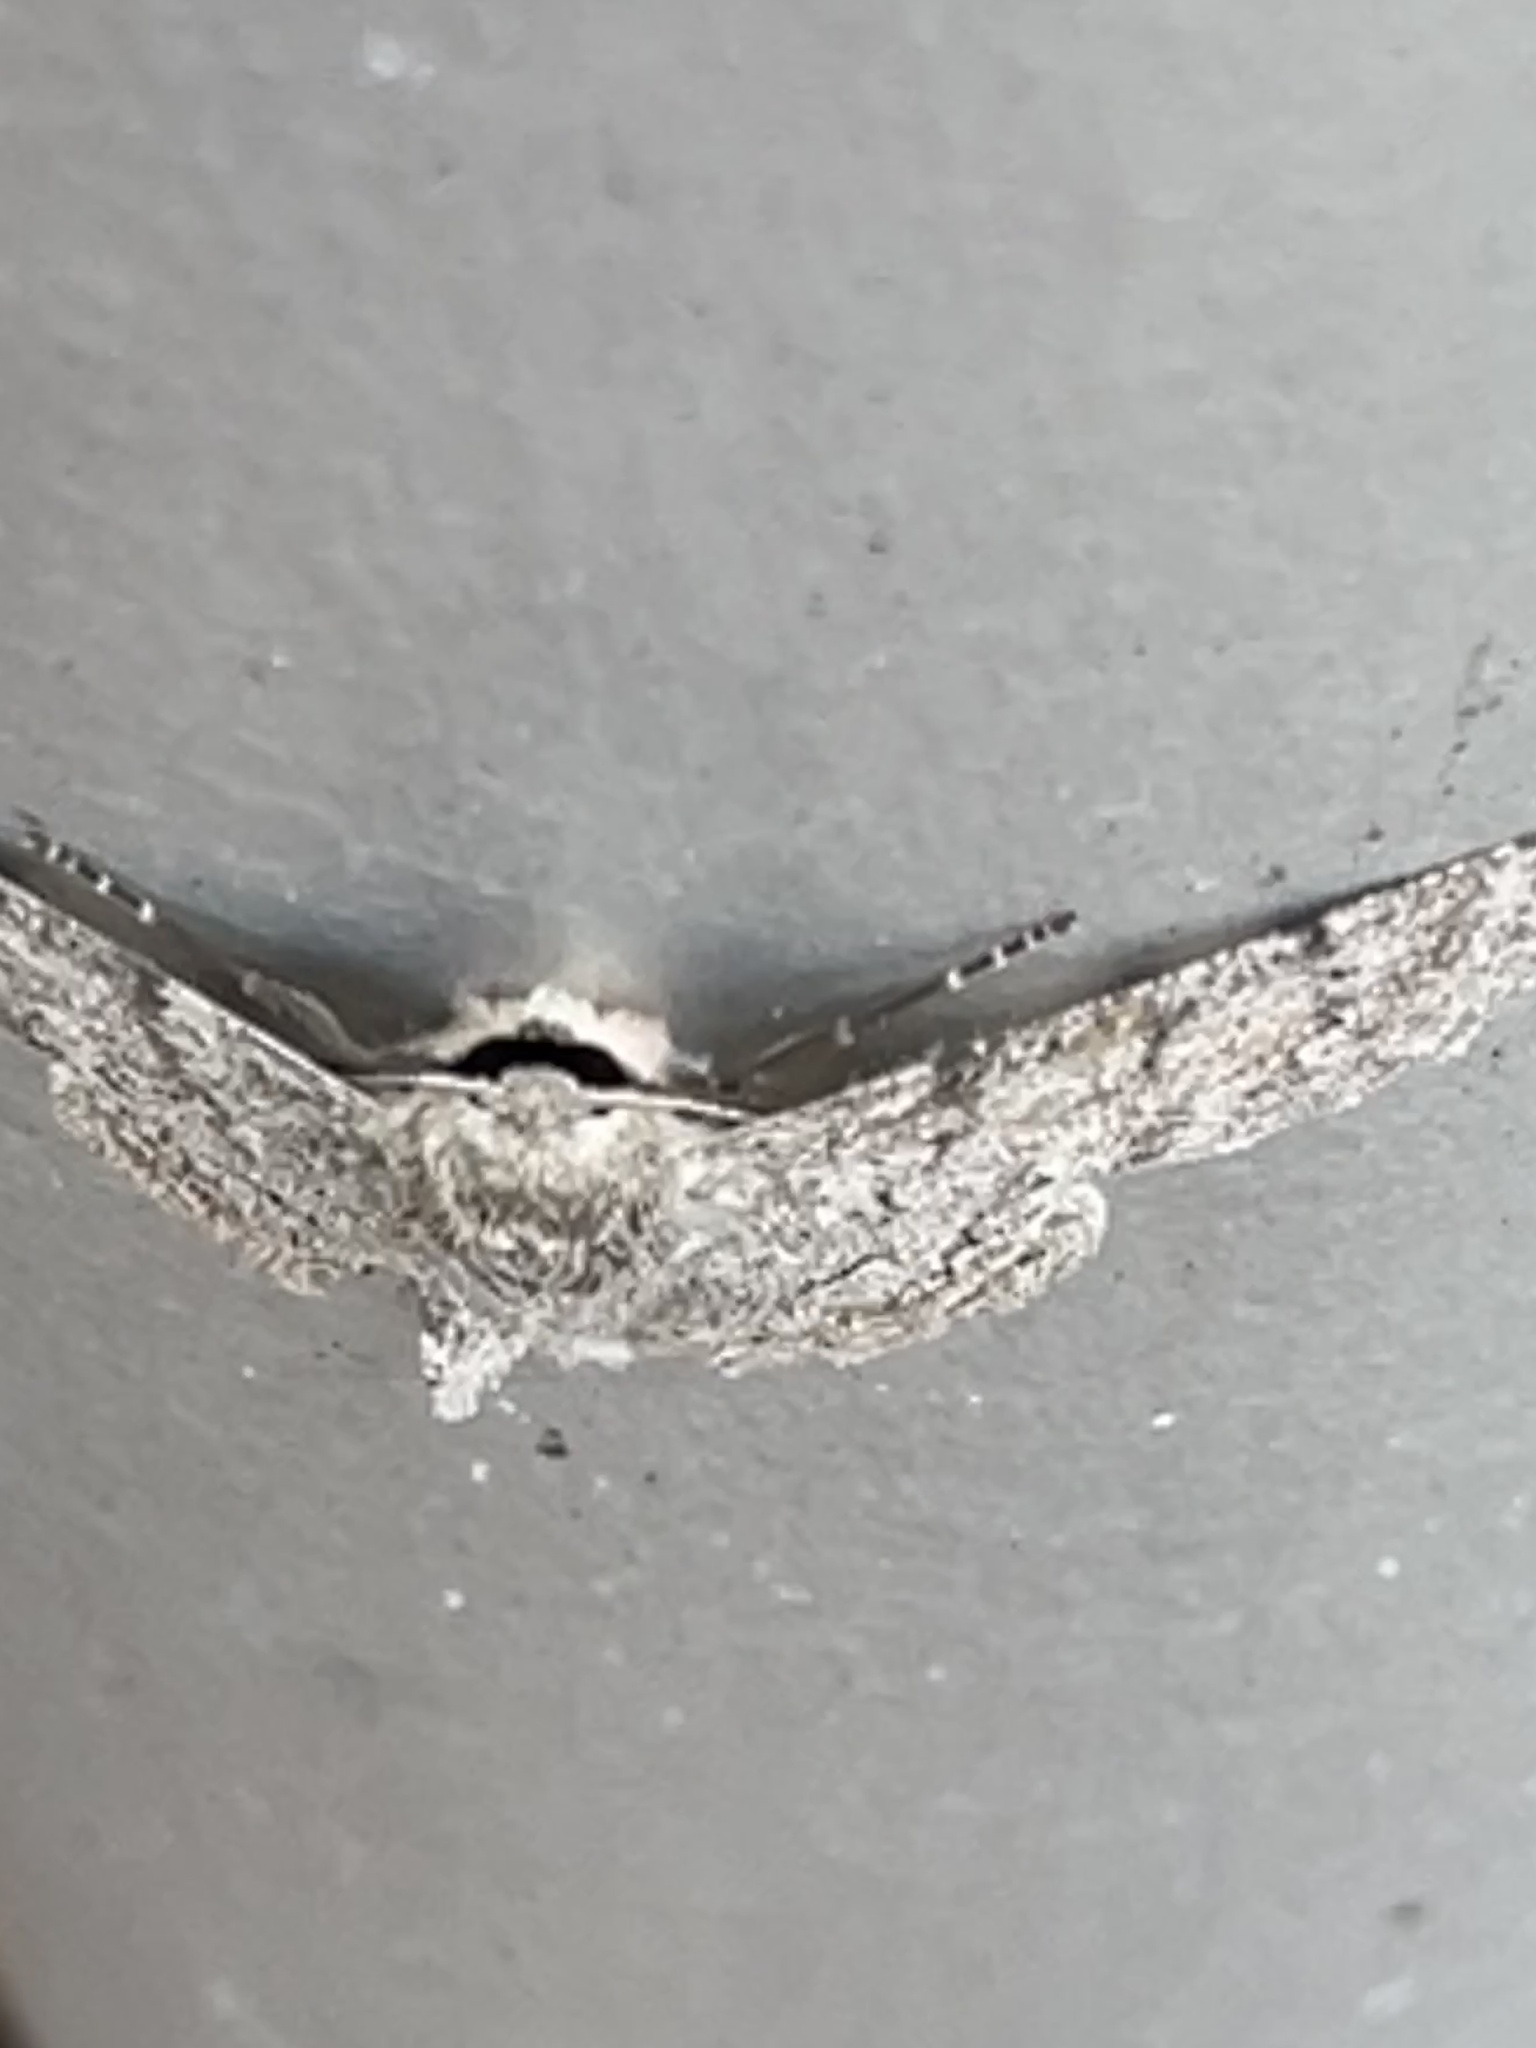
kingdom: Animalia
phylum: Arthropoda
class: Insecta
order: Lepidoptera
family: Geometridae
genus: Crypsiphona
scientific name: Crypsiphona ocultaria
